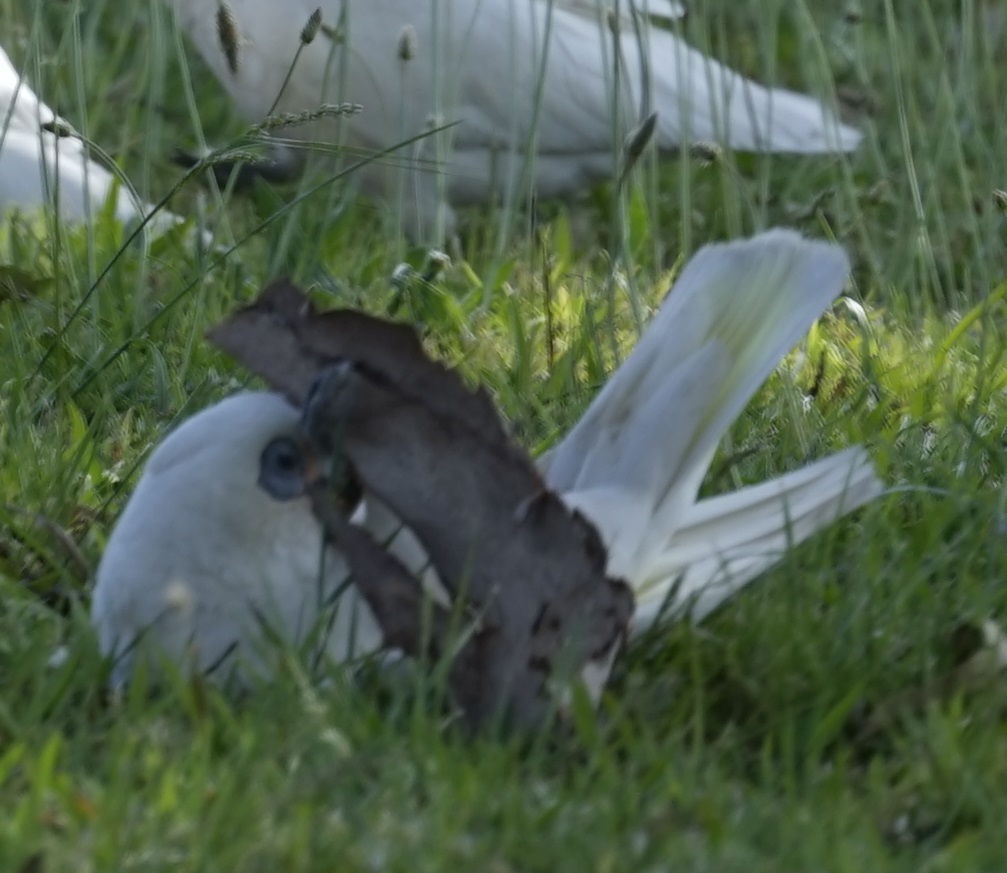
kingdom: Animalia
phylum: Chordata
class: Aves
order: Psittaciformes
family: Psittacidae
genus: Cacatua
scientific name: Cacatua sanguinea
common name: Little corella
